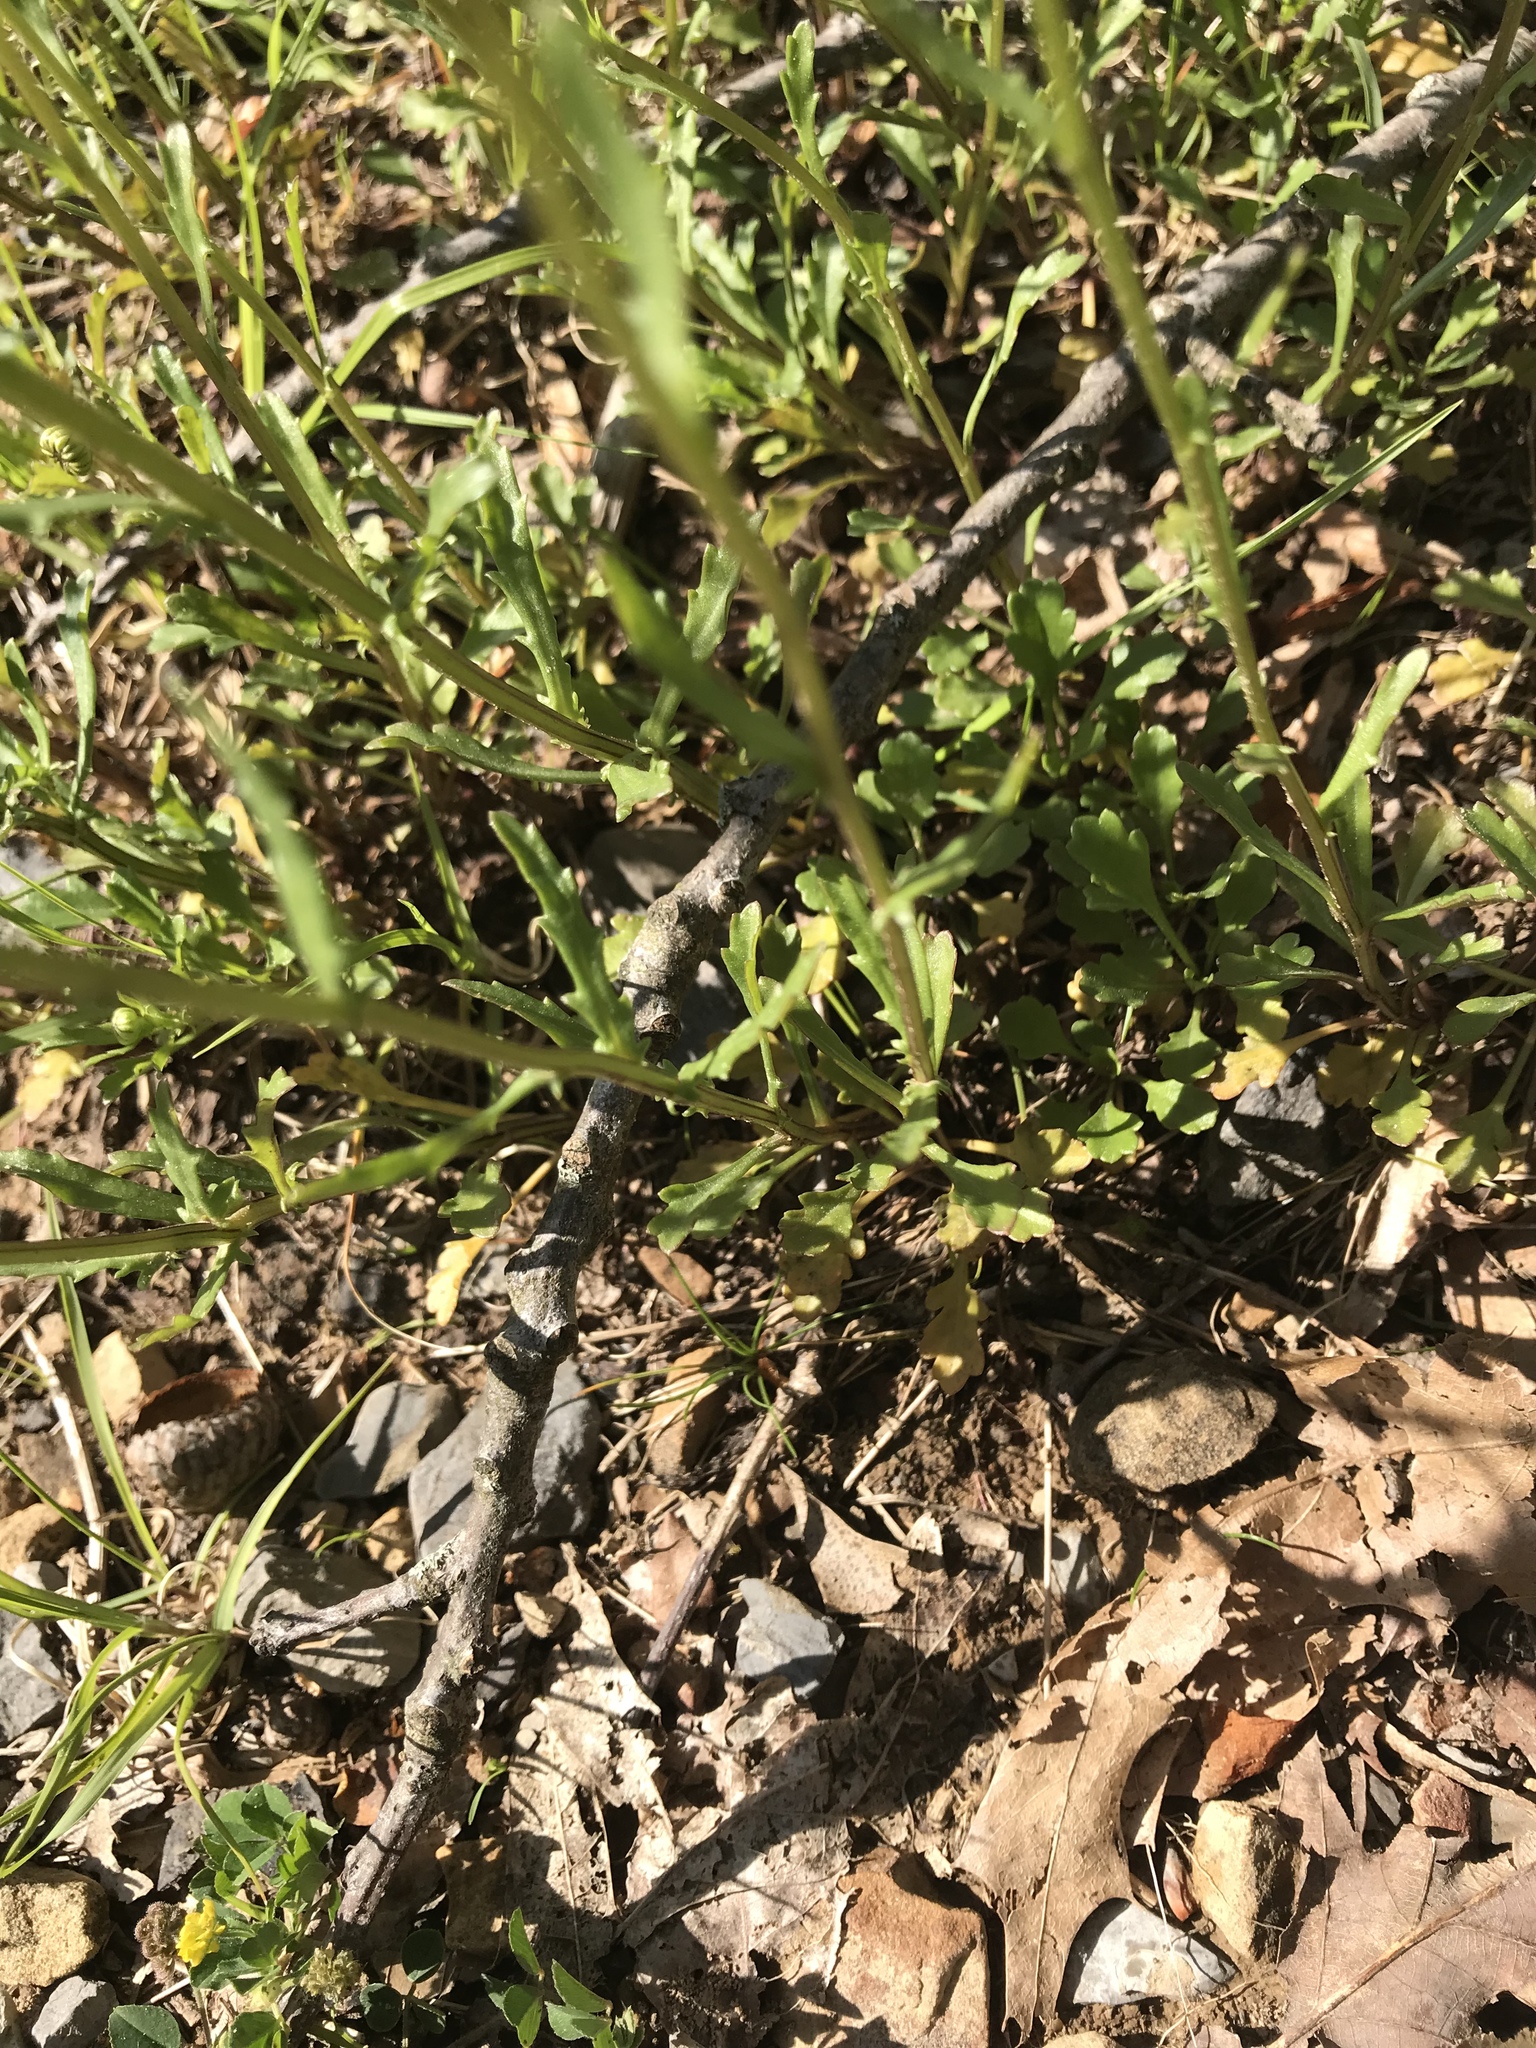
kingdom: Plantae
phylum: Tracheophyta
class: Magnoliopsida
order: Asterales
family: Asteraceae
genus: Leucanthemum
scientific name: Leucanthemum vulgare
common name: Oxeye daisy
